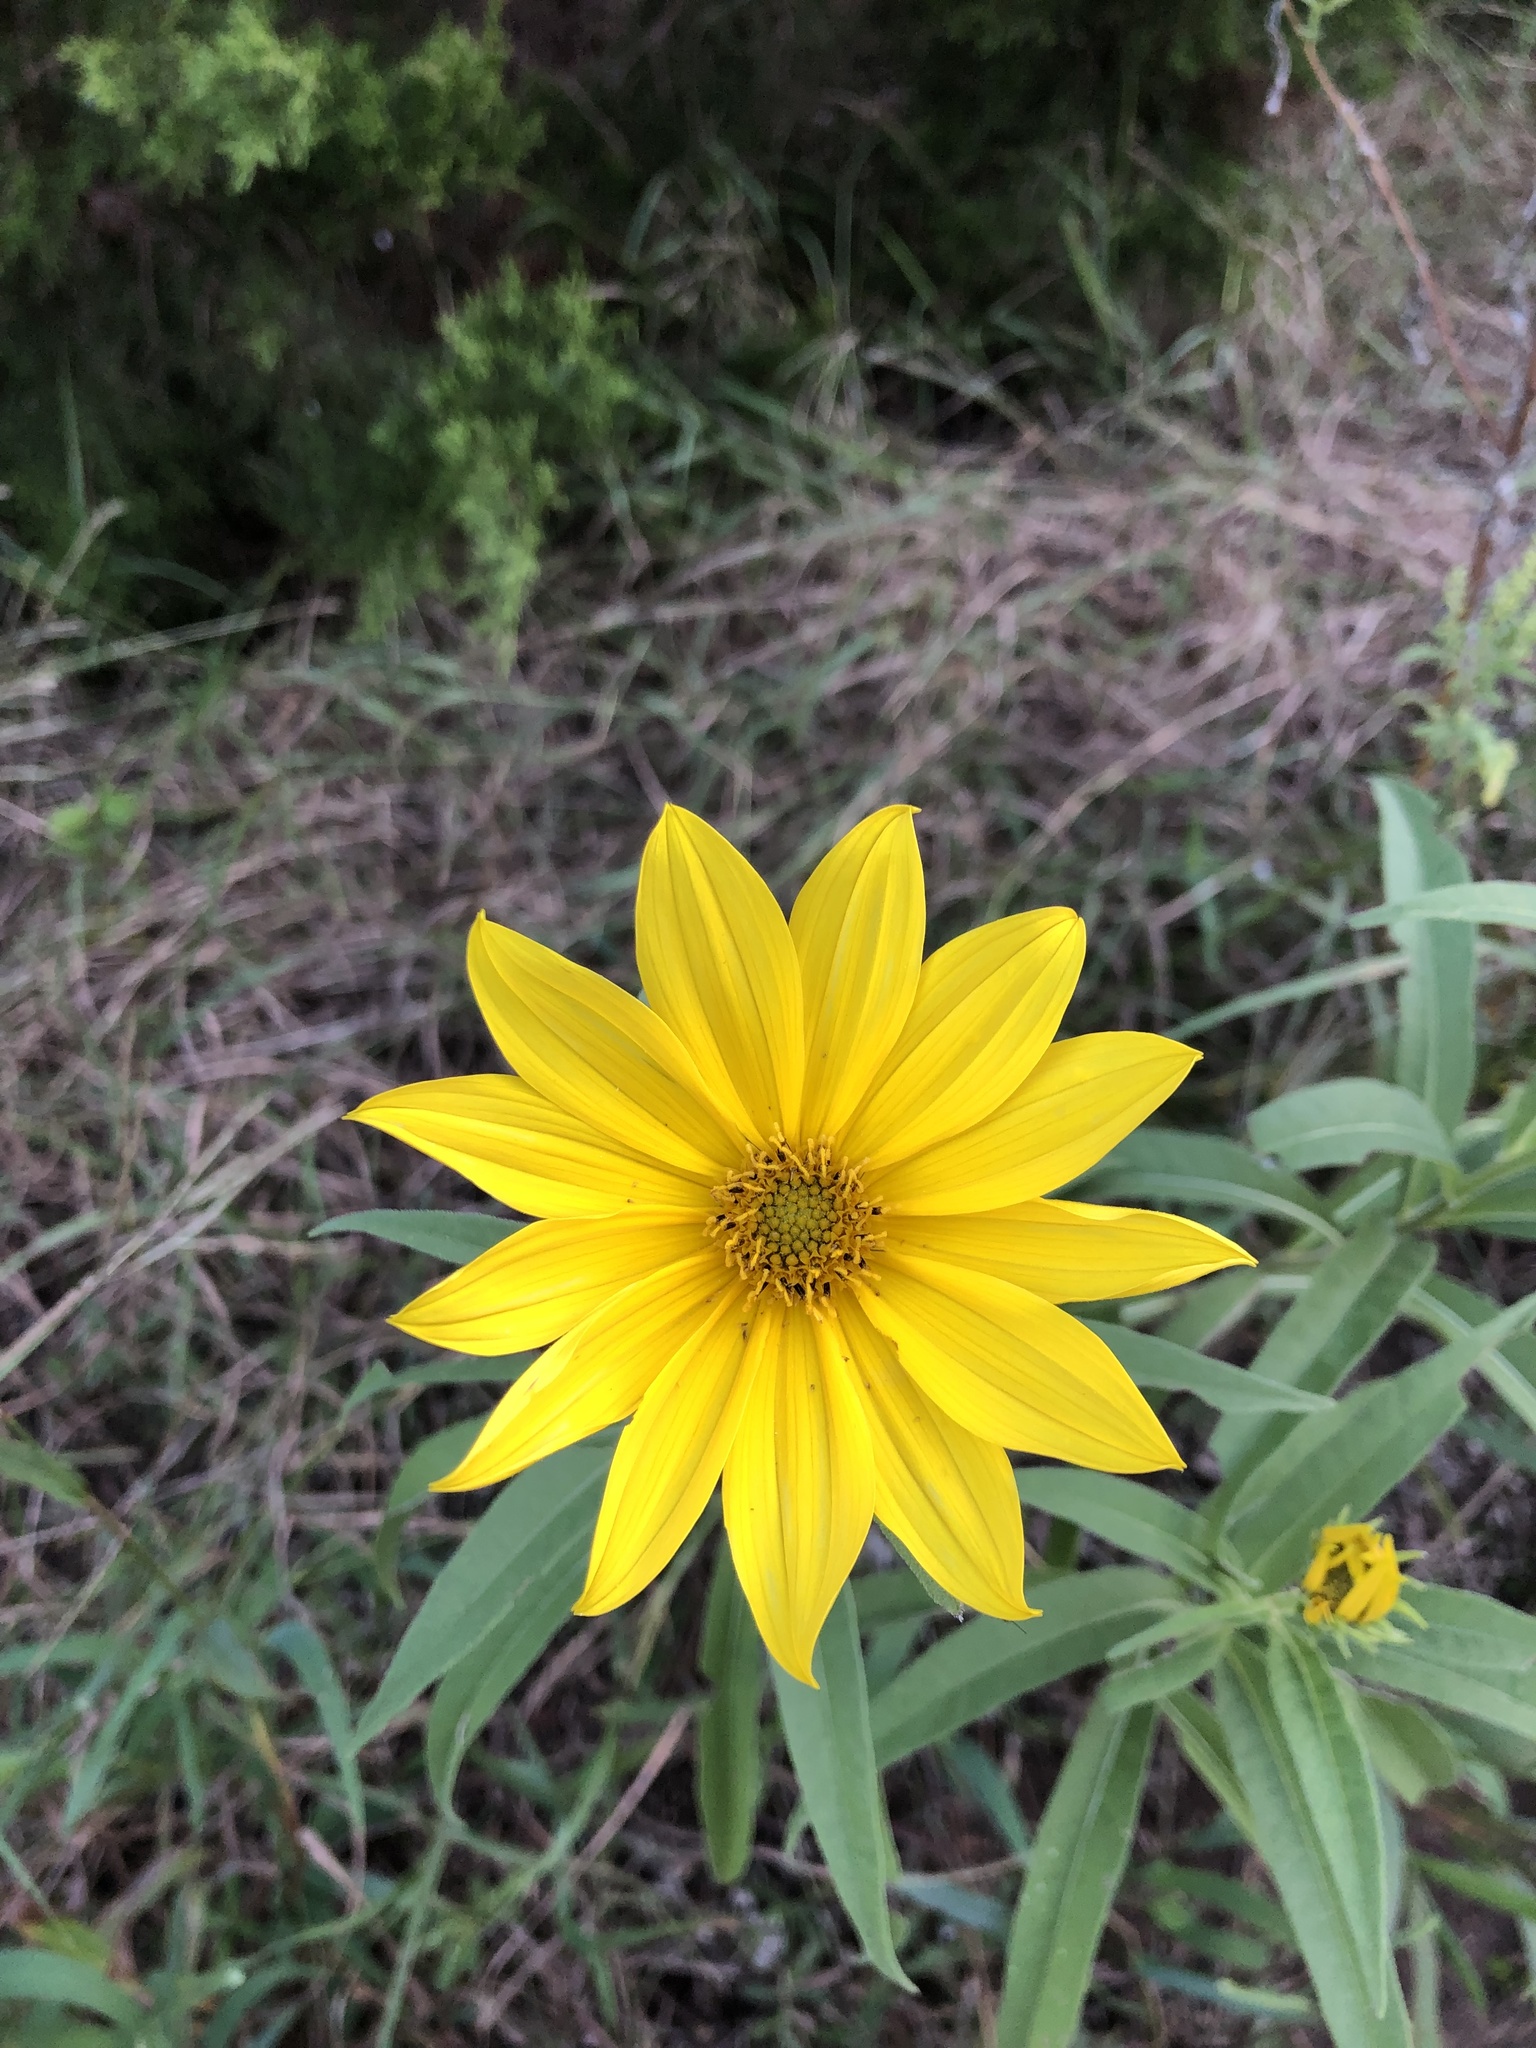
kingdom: Plantae
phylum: Tracheophyta
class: Magnoliopsida
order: Asterales
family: Asteraceae
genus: Helianthus
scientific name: Helianthus maximiliani
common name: Maximilian's sunflower
